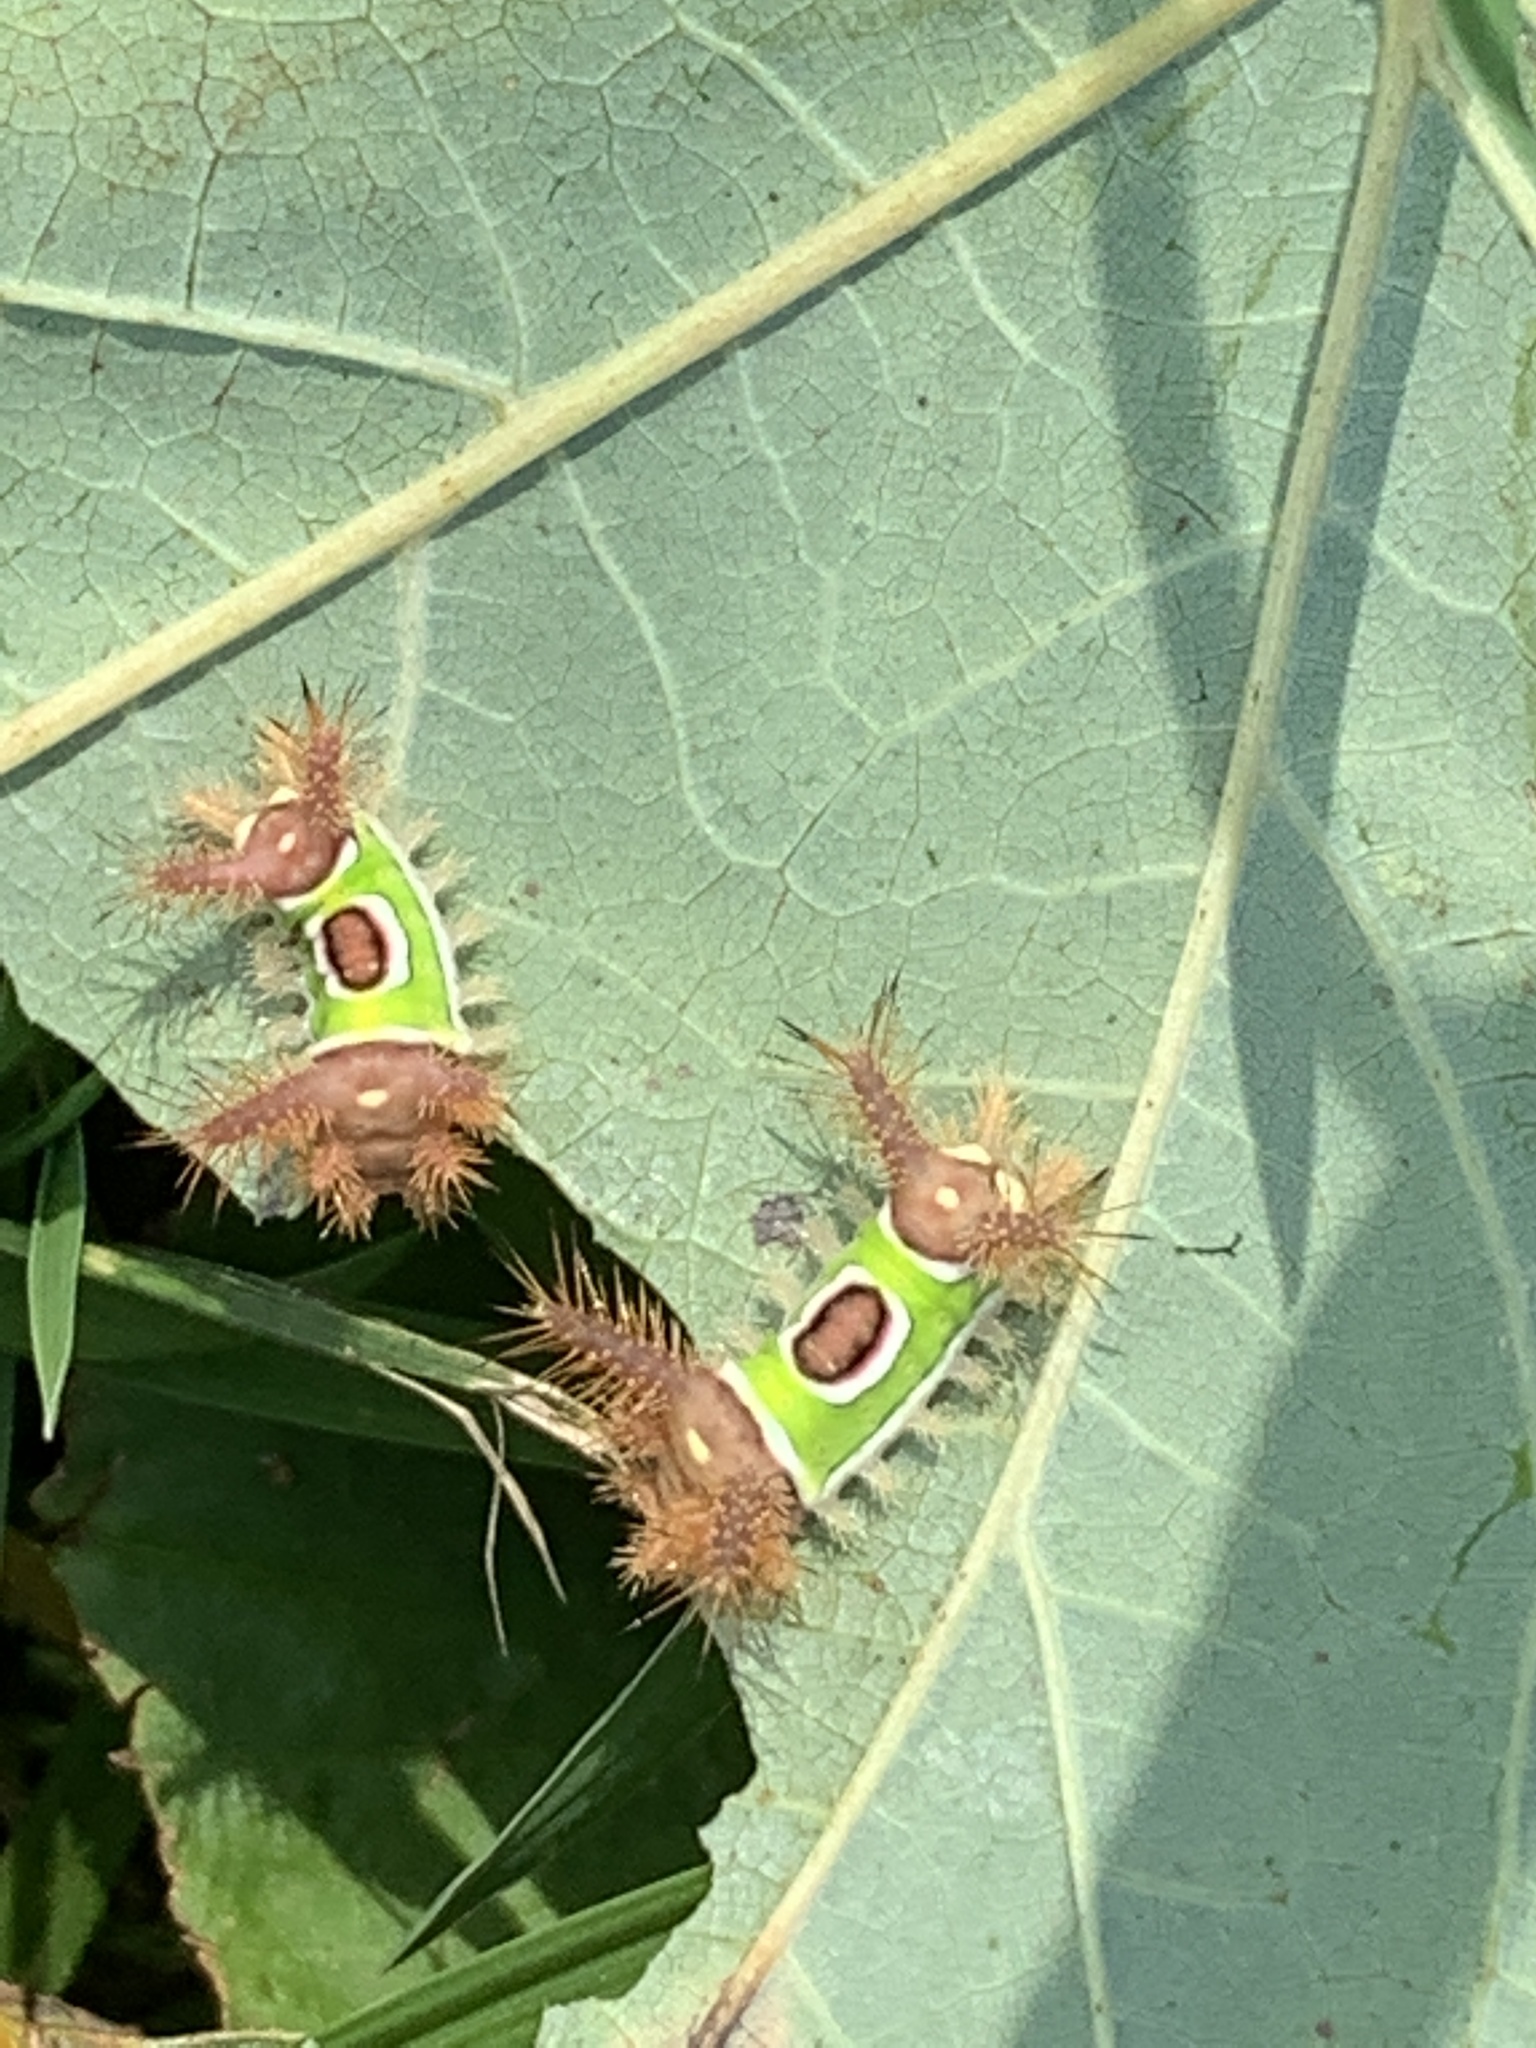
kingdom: Animalia
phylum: Arthropoda
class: Insecta
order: Lepidoptera
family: Limacodidae
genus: Acharia
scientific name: Acharia stimulea
